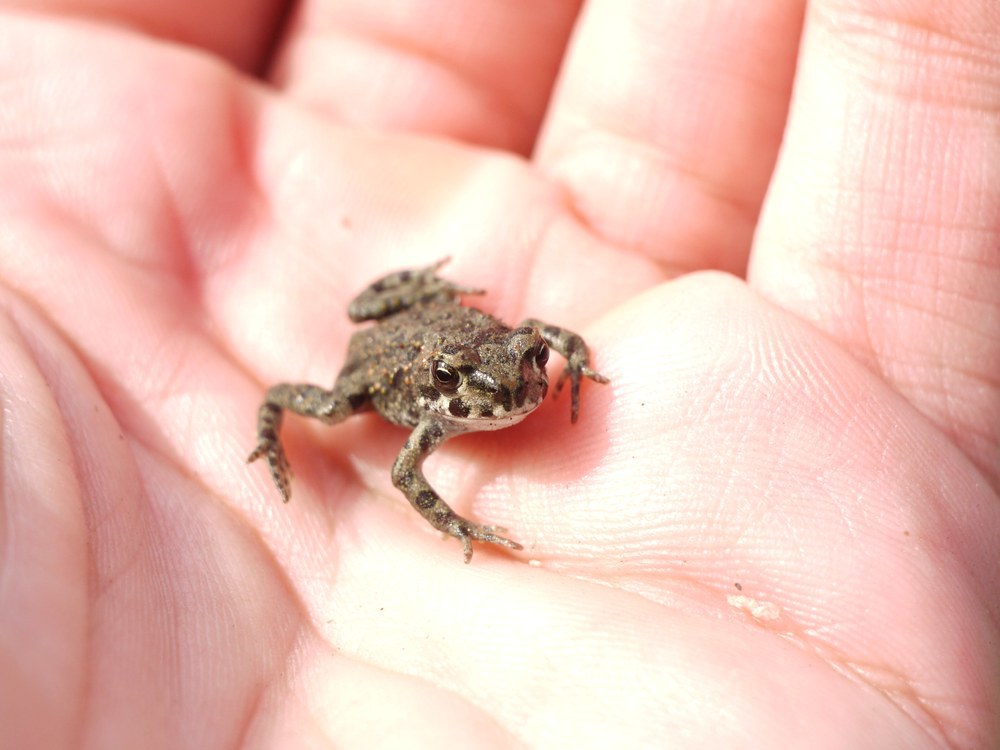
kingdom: Animalia
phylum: Chordata
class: Amphibia
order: Anura
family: Bufonidae
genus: Bufotes
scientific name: Bufotes viridis
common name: European green toad
